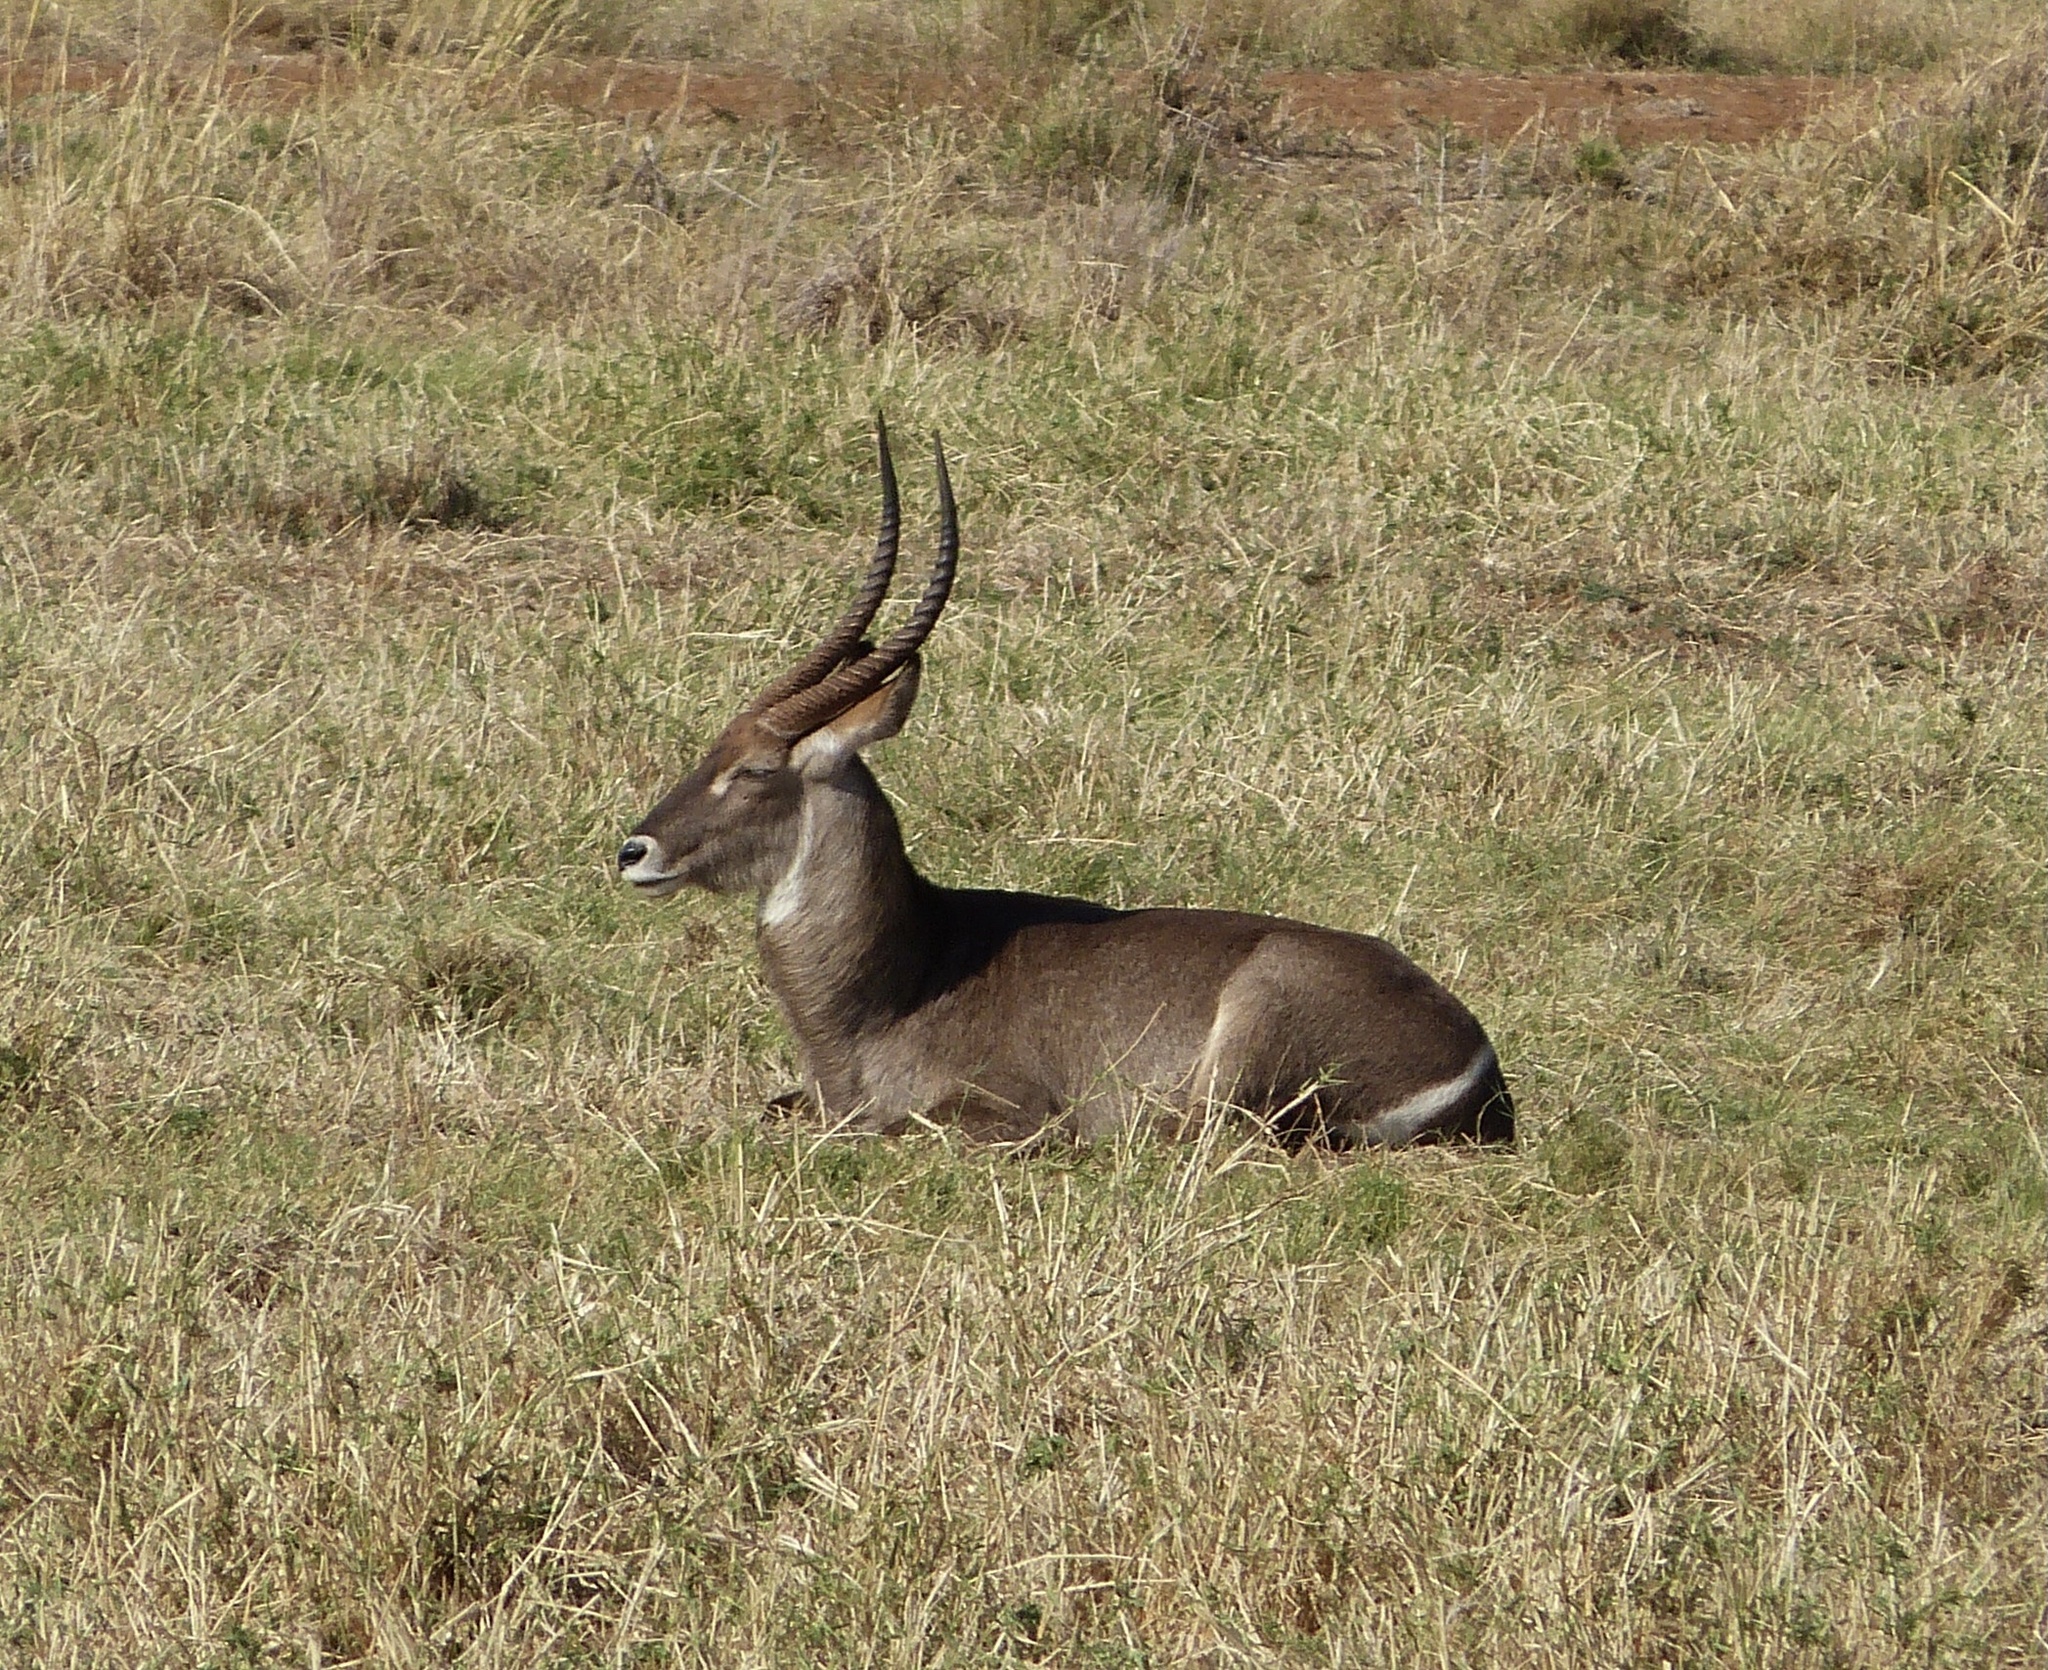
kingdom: Animalia
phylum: Chordata
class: Mammalia
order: Artiodactyla
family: Bovidae
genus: Kobus
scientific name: Kobus ellipsiprymnus
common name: Waterbuck
